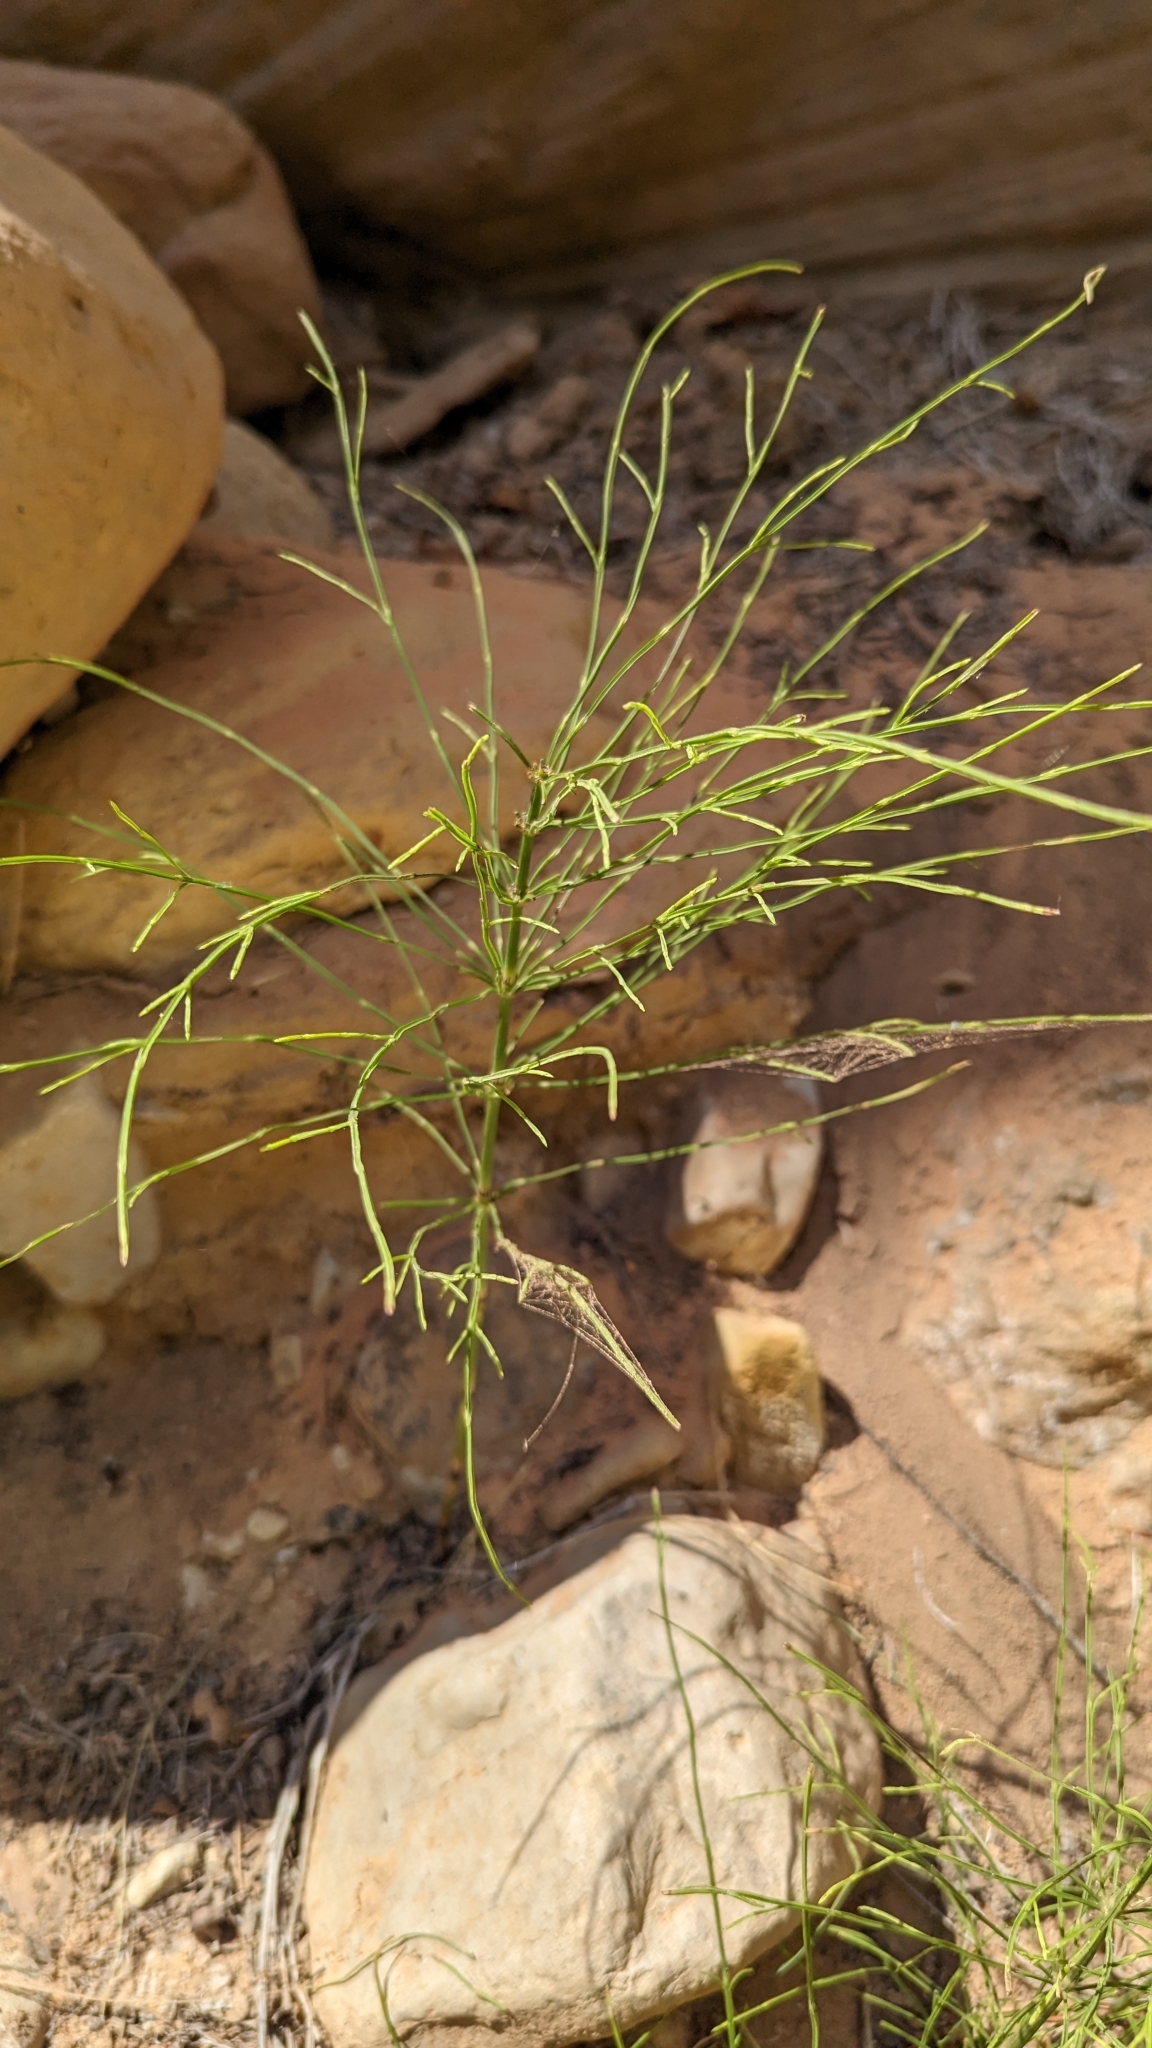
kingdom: Plantae
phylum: Tracheophyta
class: Polypodiopsida
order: Equisetales
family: Equisetaceae
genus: Equisetum
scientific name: Equisetum arvense
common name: Field horsetail
